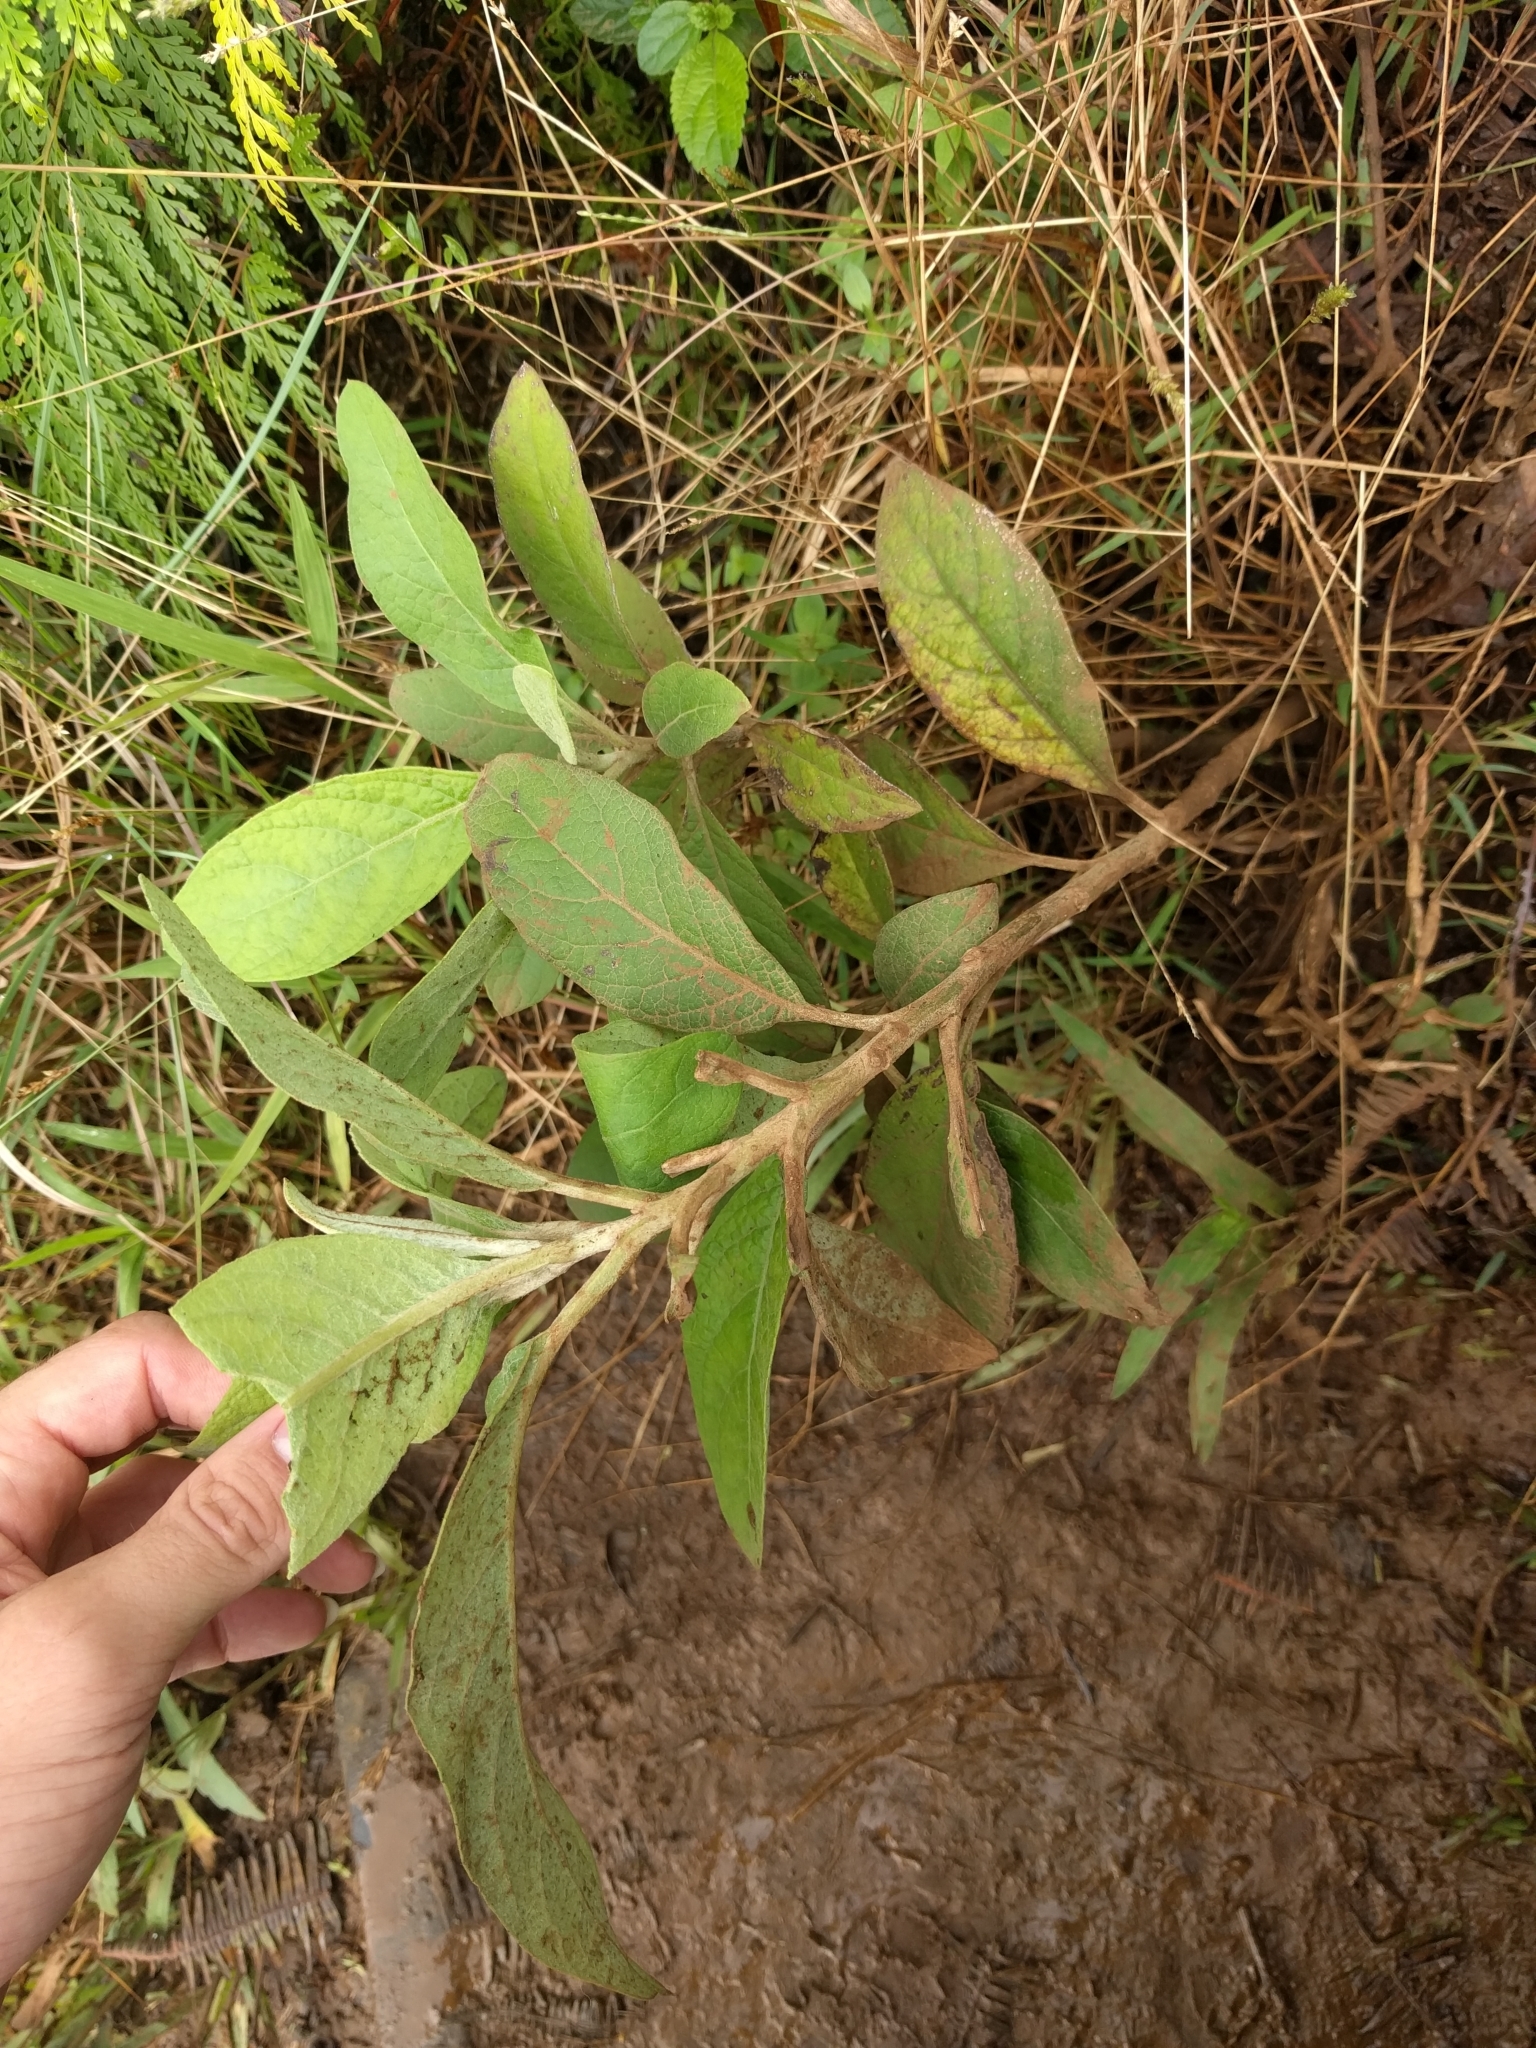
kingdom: Plantae
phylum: Tracheophyta
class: Magnoliopsida
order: Asterales
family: Asteraceae
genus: Pluchea
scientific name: Pluchea carolinensis
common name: Marsh fleabane
